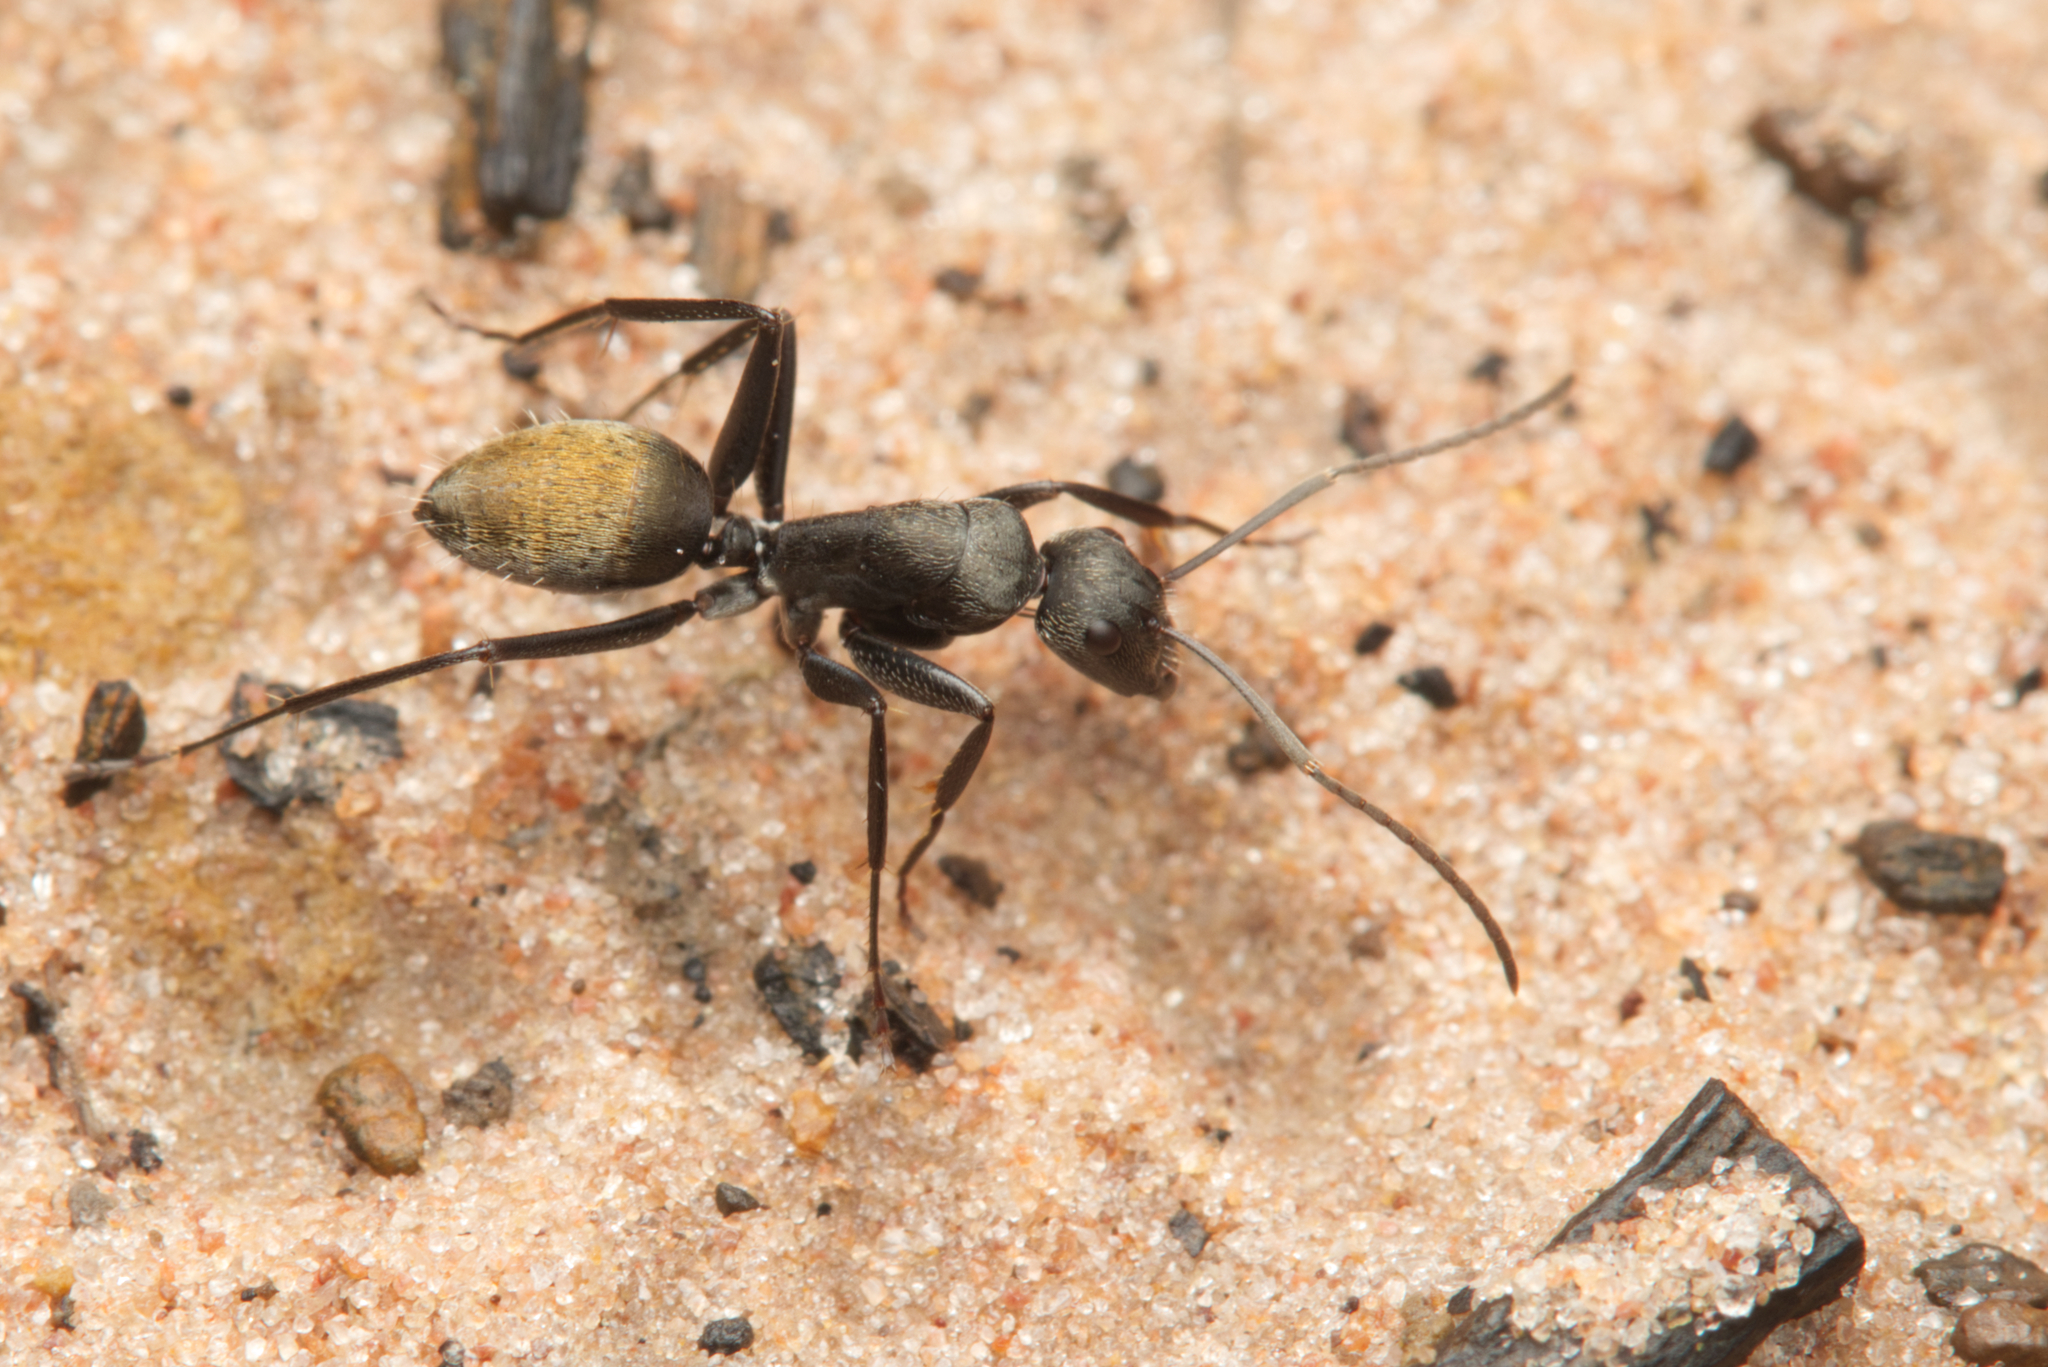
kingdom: Animalia
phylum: Arthropoda
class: Insecta
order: Hymenoptera
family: Formicidae
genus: Camponotus
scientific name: Camponotus aeneopilosus
